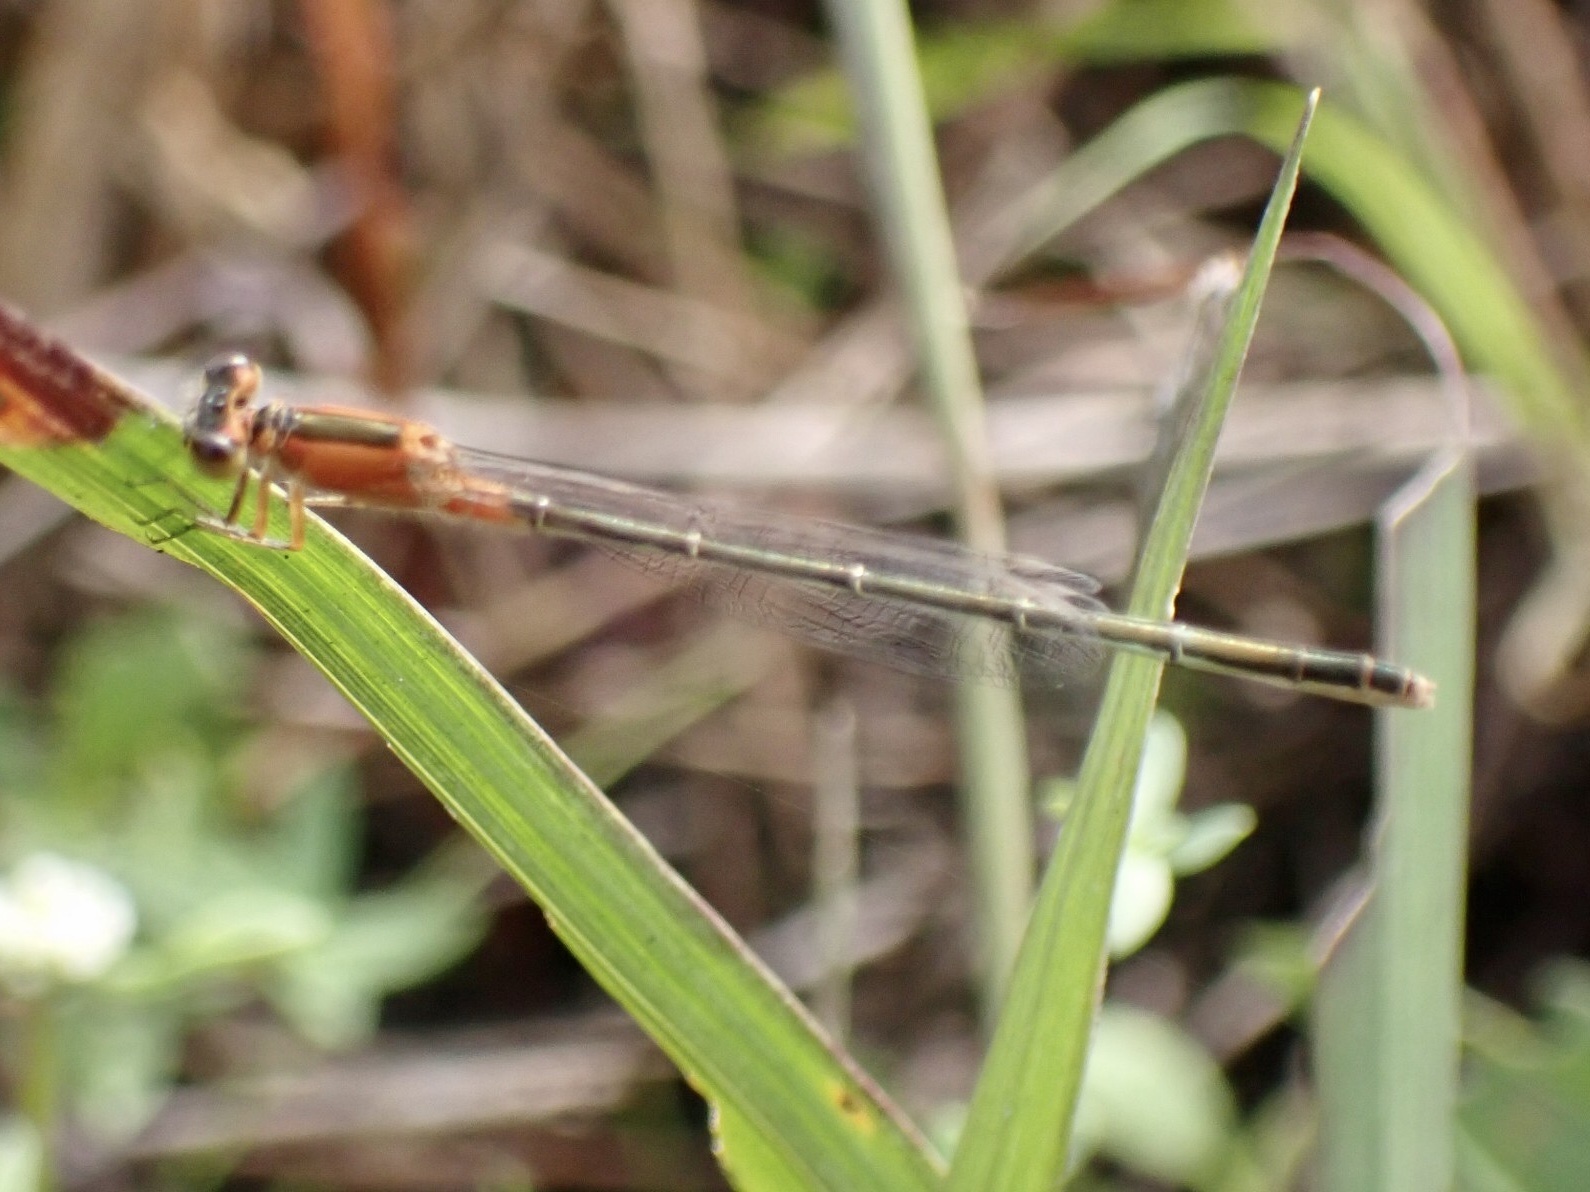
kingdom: Animalia
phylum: Arthropoda
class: Insecta
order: Odonata
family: Coenagrionidae
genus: Ischnura
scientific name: Ischnura ramburii
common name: Rambur's forktail
